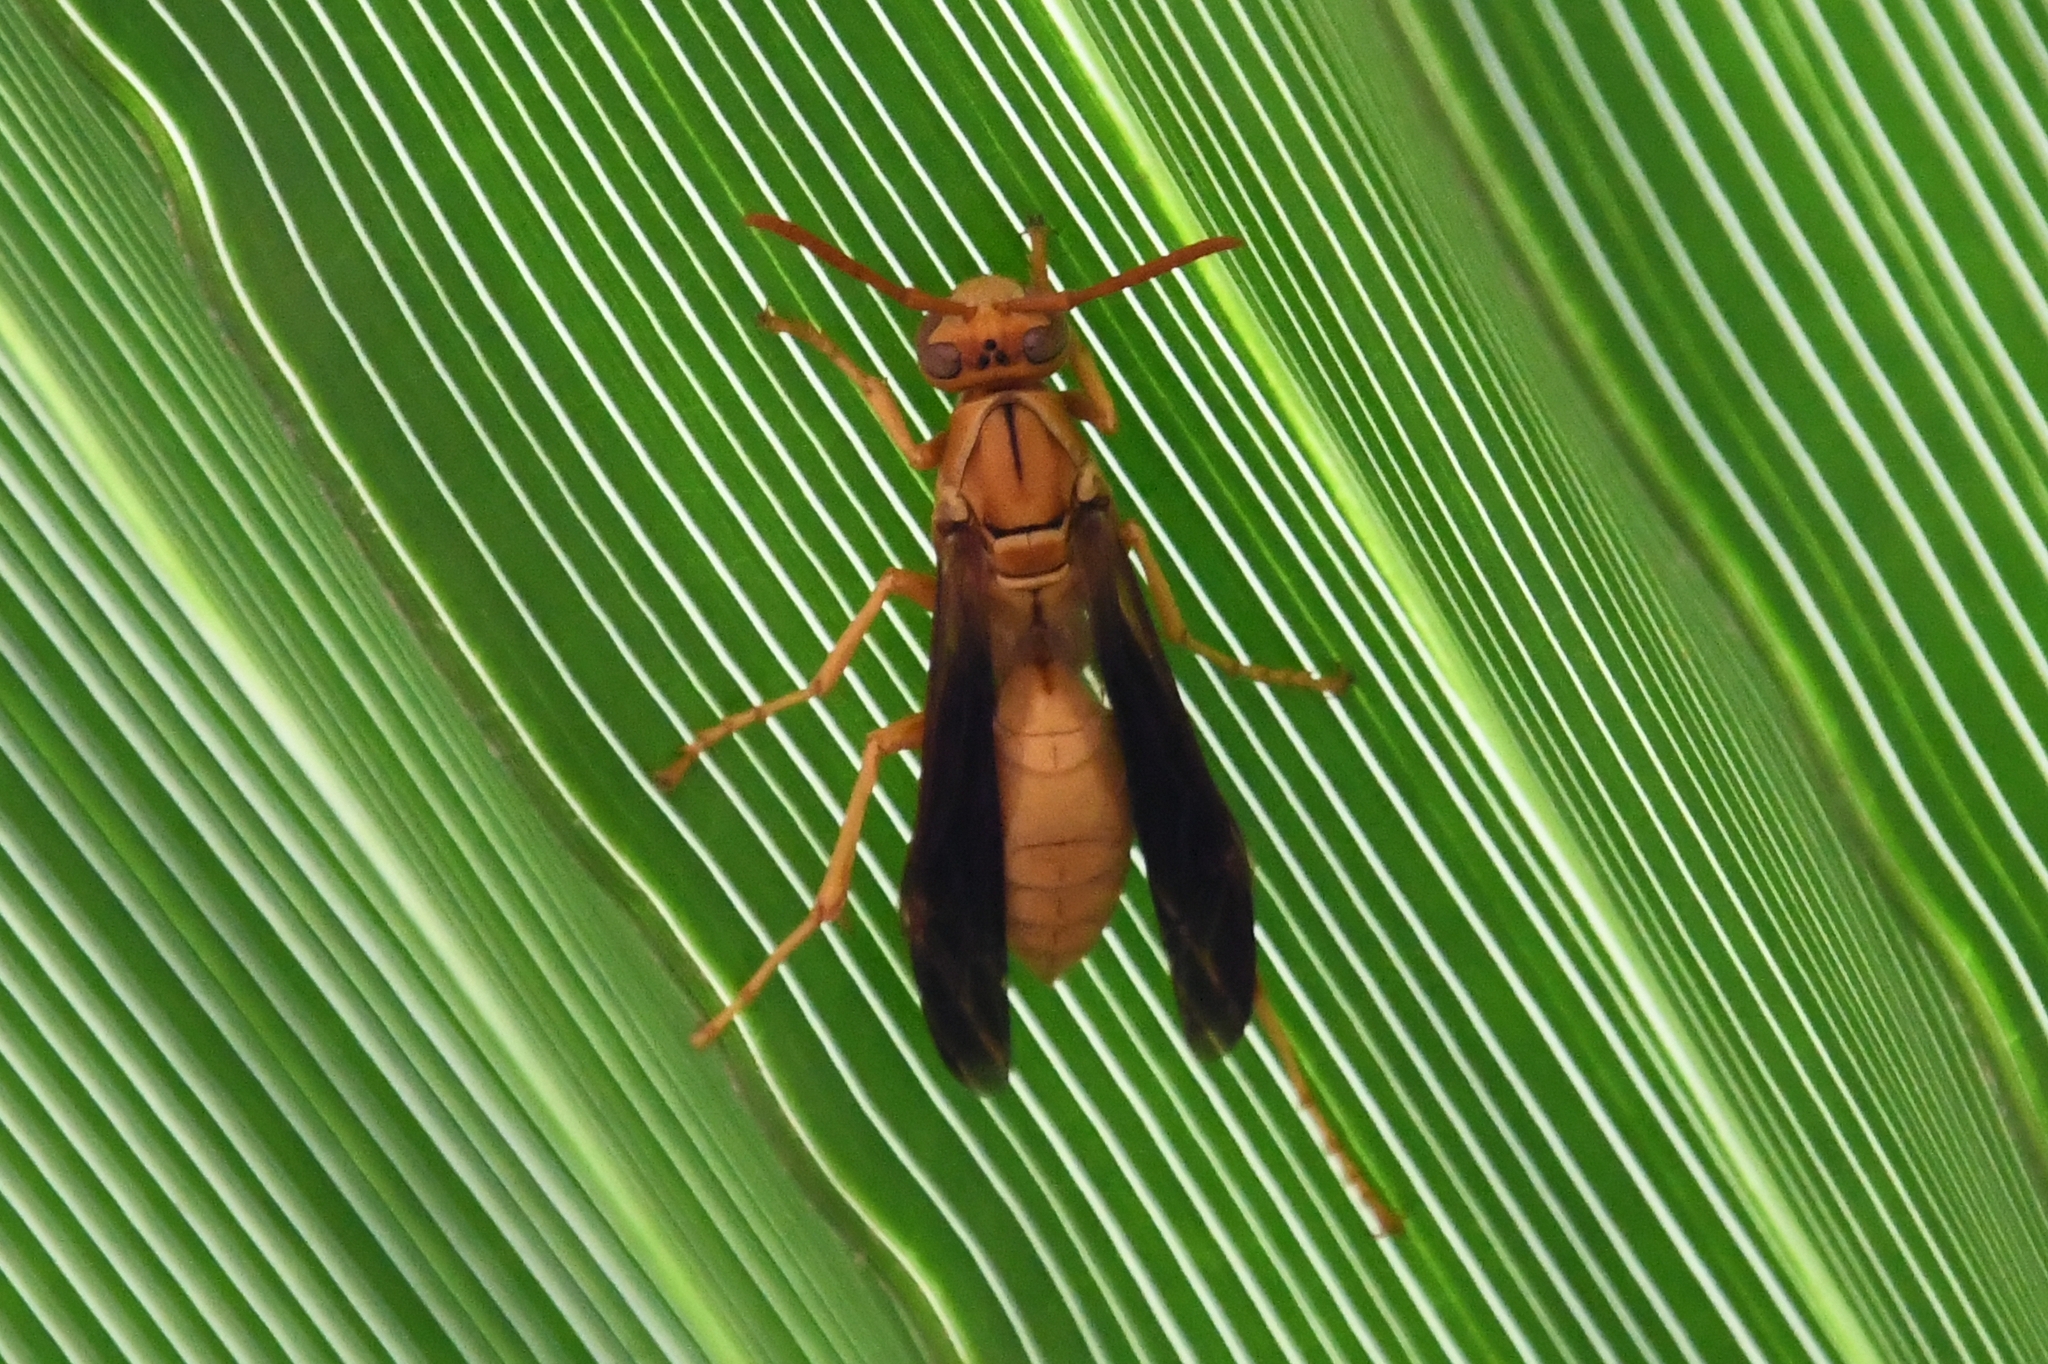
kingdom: Animalia
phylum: Arthropoda
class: Insecta
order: Hymenoptera
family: Eumenidae
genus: Polistes
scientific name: Polistes flavus
